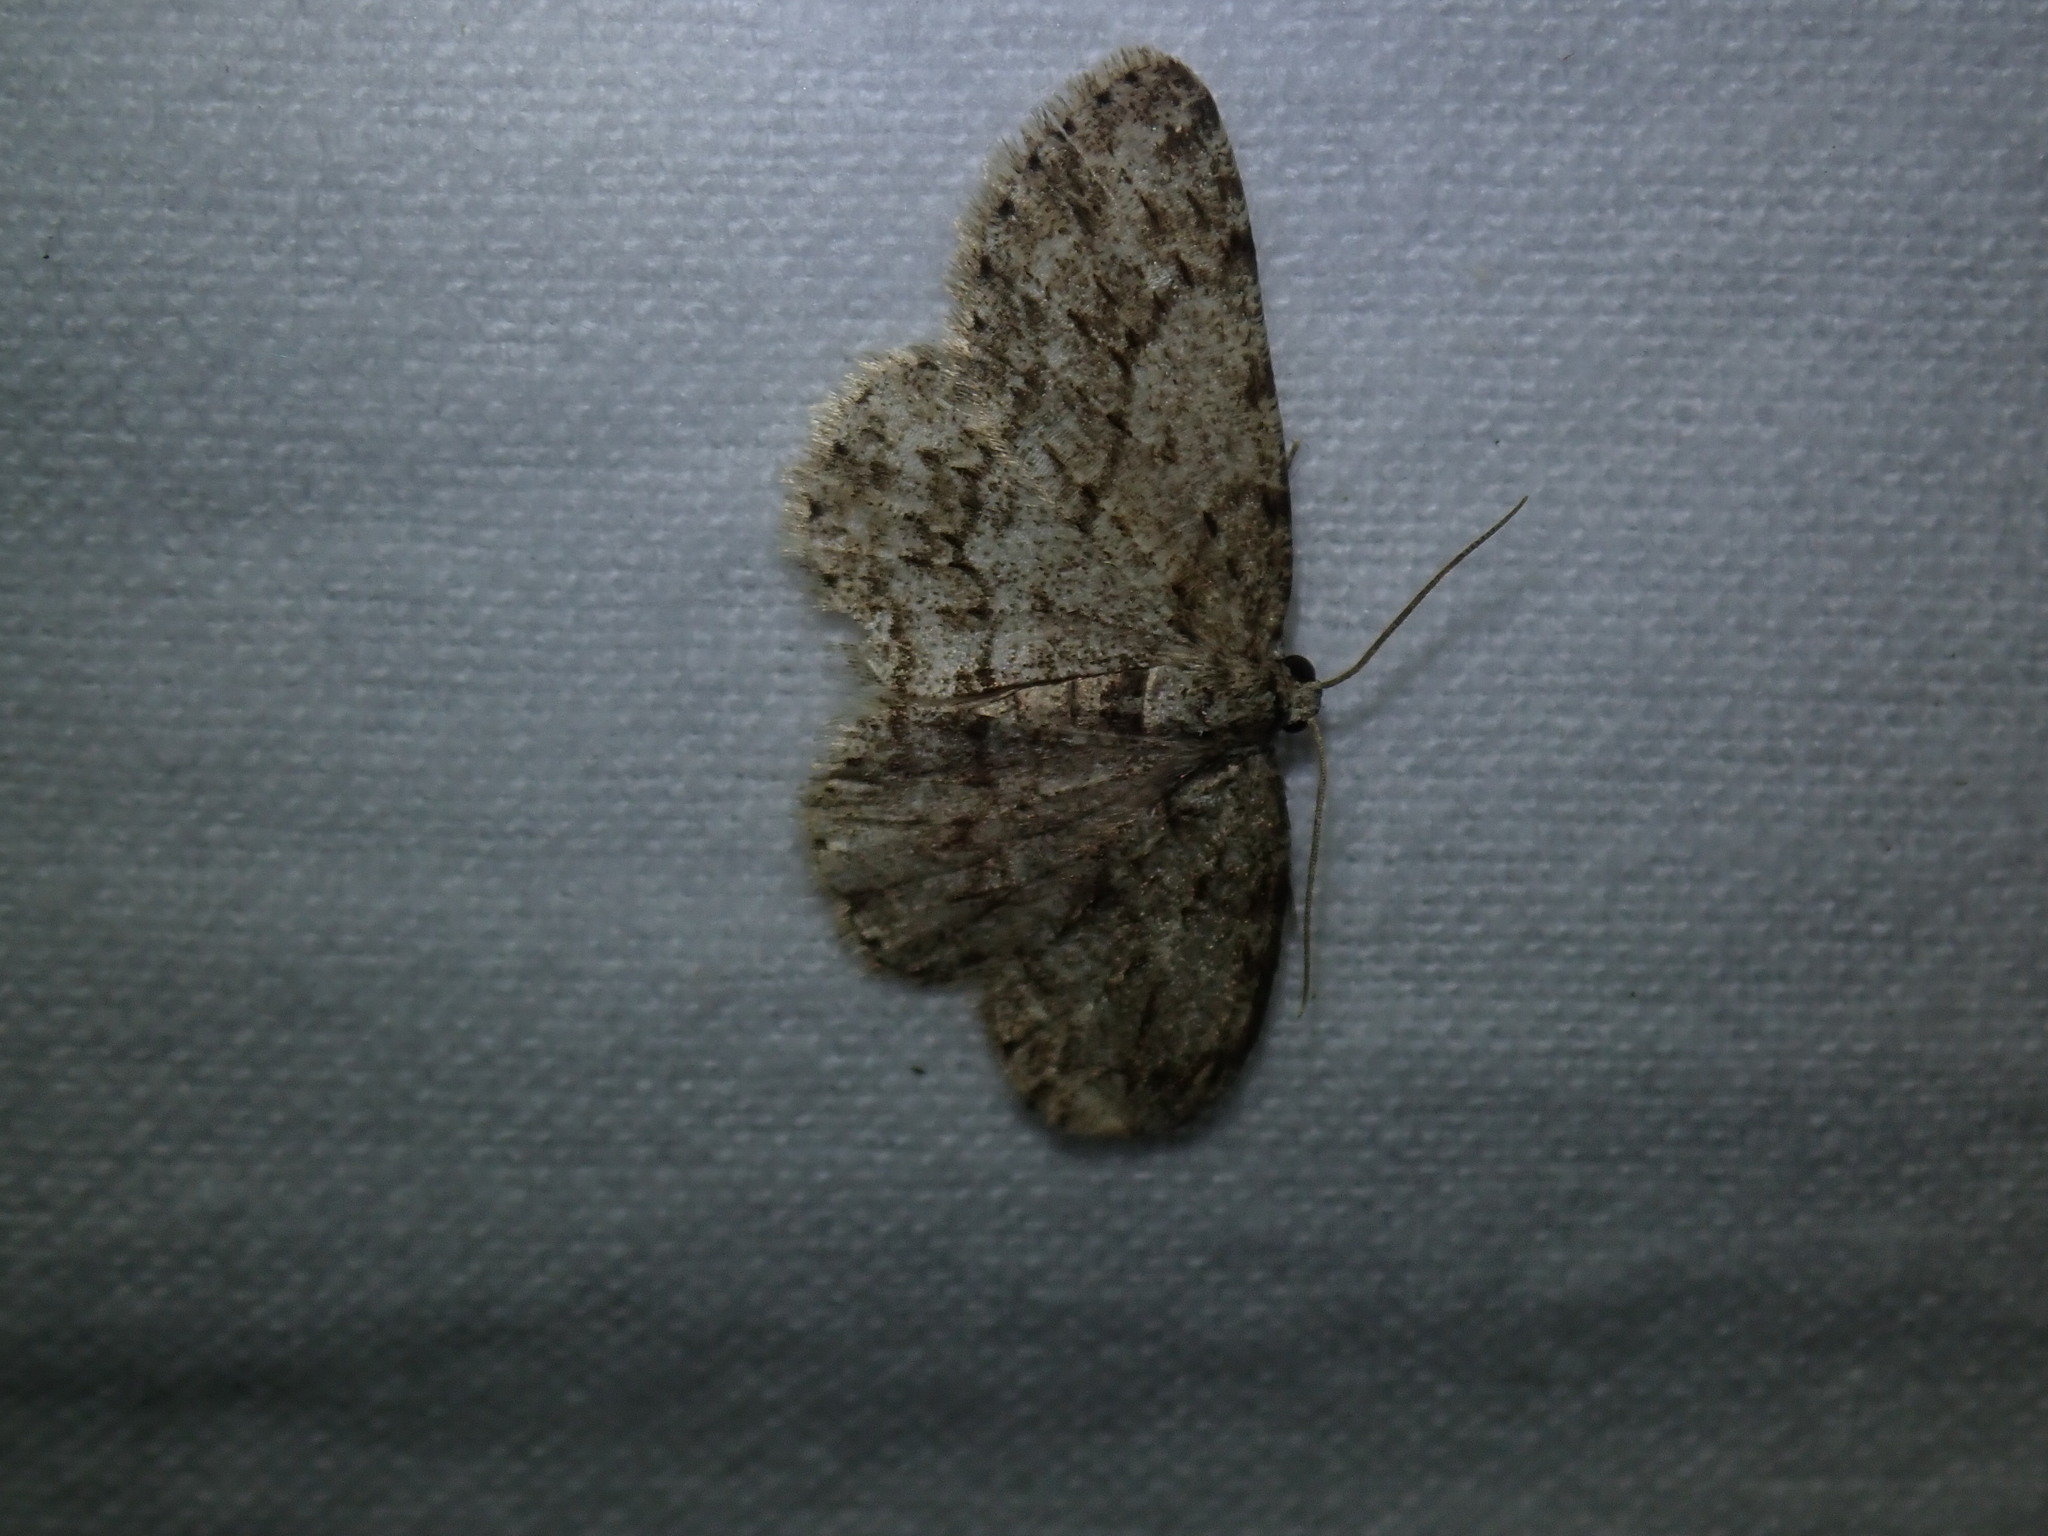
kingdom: Animalia
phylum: Arthropoda
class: Insecta
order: Lepidoptera
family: Geometridae
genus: Ectropis
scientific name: Ectropis crepuscularia
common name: Engrailed
